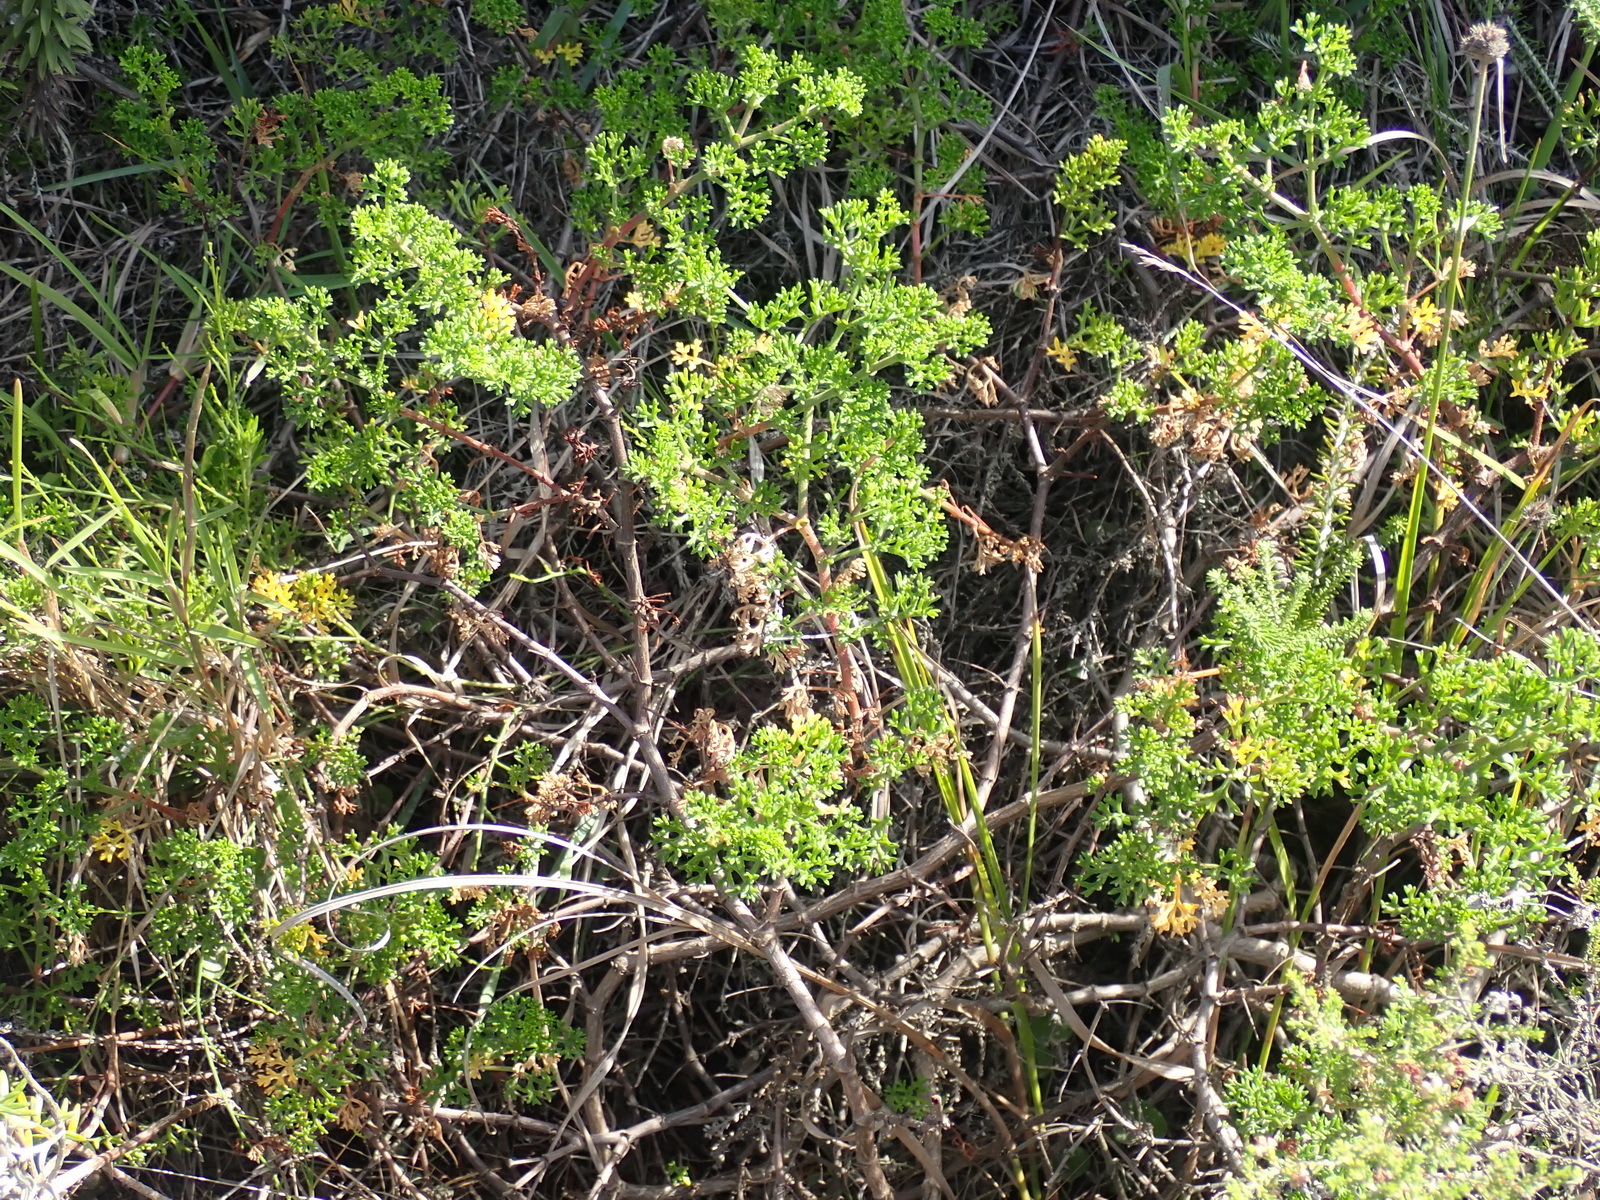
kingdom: Plantae
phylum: Tracheophyta
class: Magnoliopsida
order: Geraniales
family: Geraniaceae
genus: Pelargonium
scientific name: Pelargonium fruticosum
